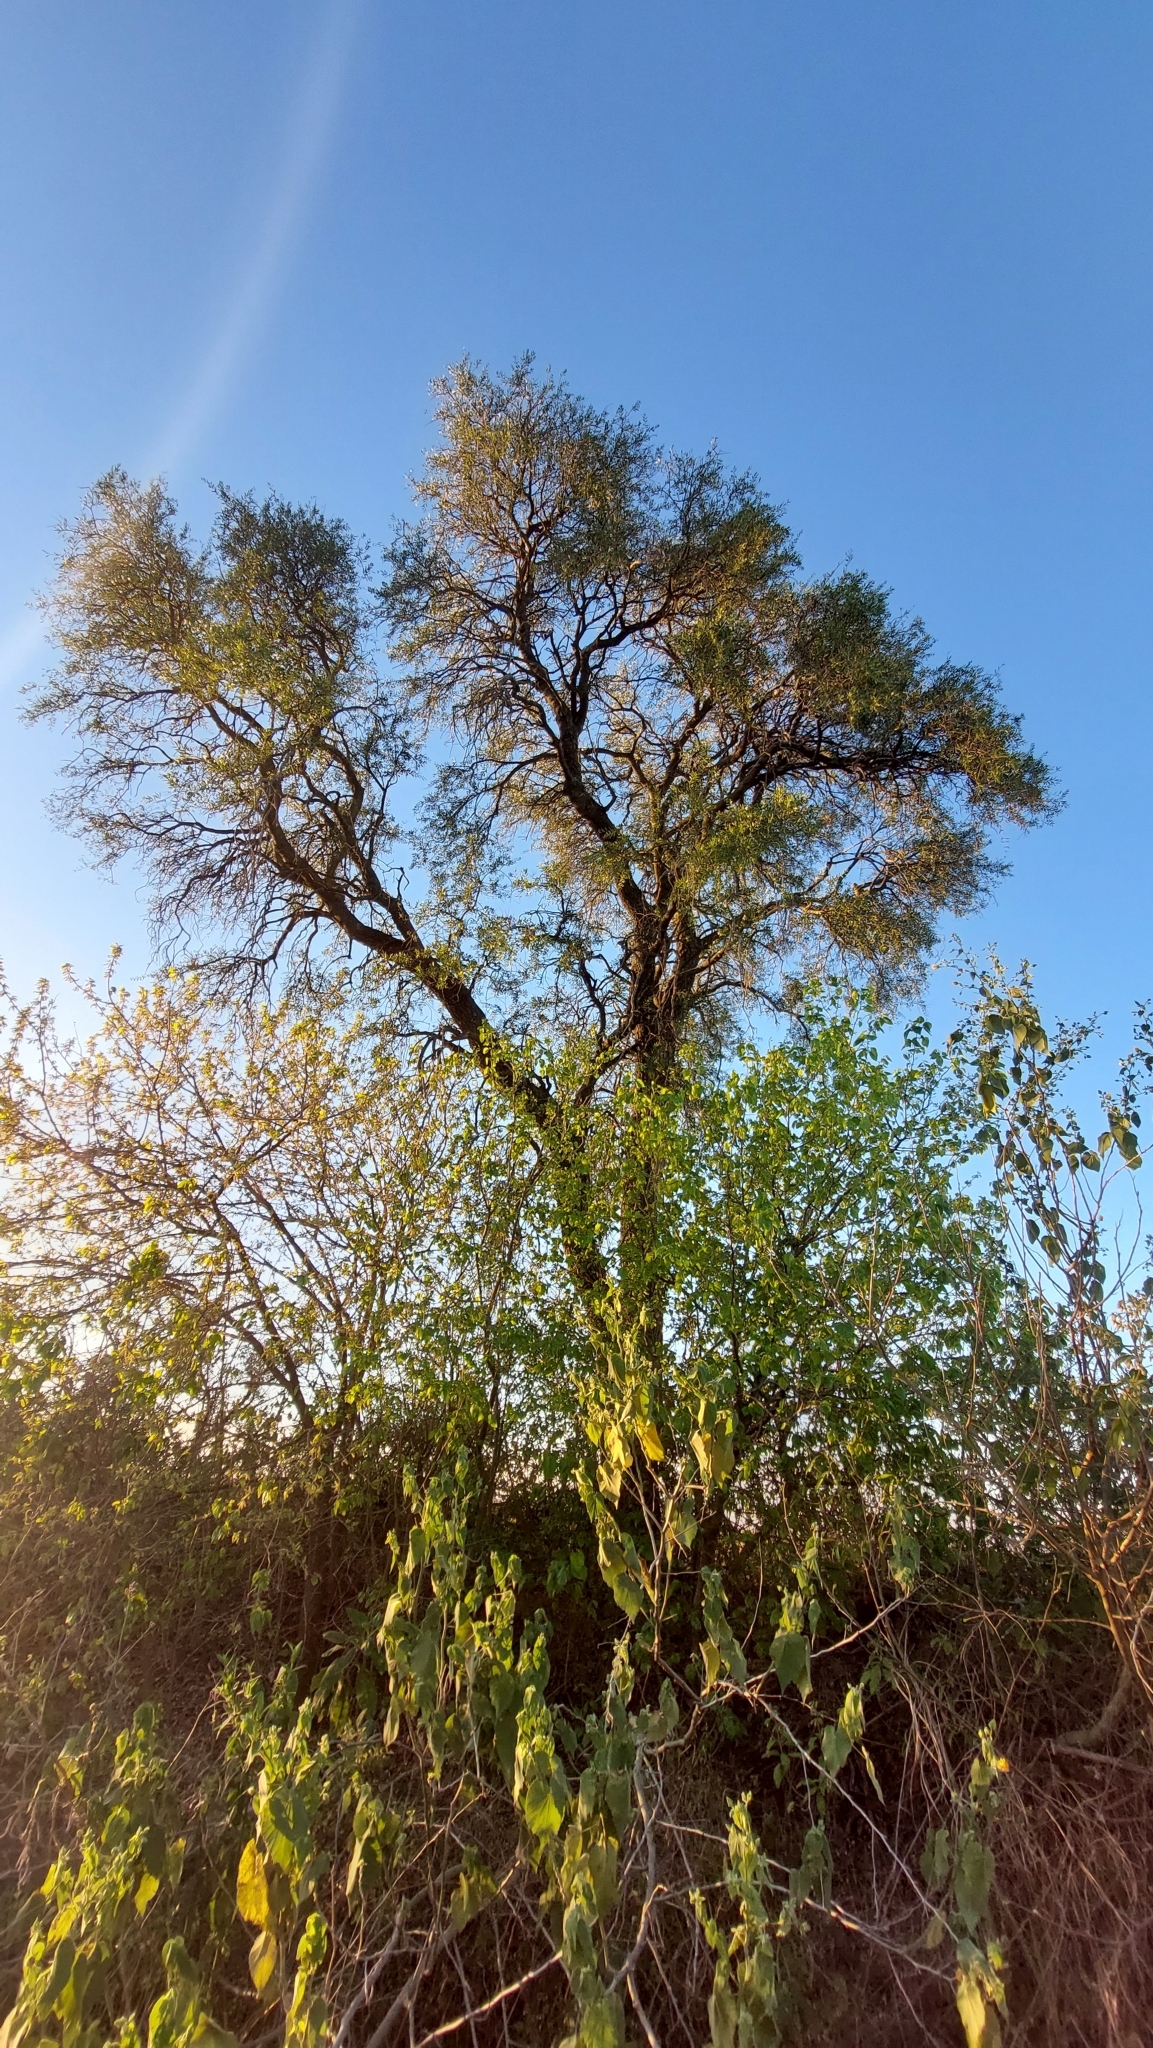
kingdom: Plantae
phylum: Tracheophyta
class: Magnoliopsida
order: Gentianales
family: Apocynaceae
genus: Aspidosperma
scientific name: Aspidosperma quebracho-blanco
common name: White quebracho
